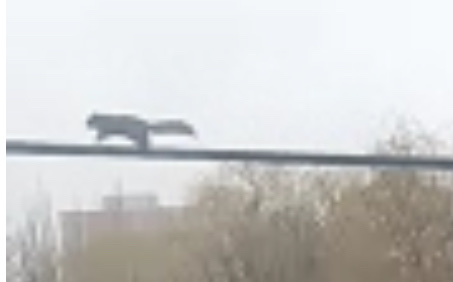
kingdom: Animalia
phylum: Chordata
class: Mammalia
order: Rodentia
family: Sciuridae
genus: Sciurus
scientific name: Sciurus carolinensis
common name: Eastern gray squirrel
